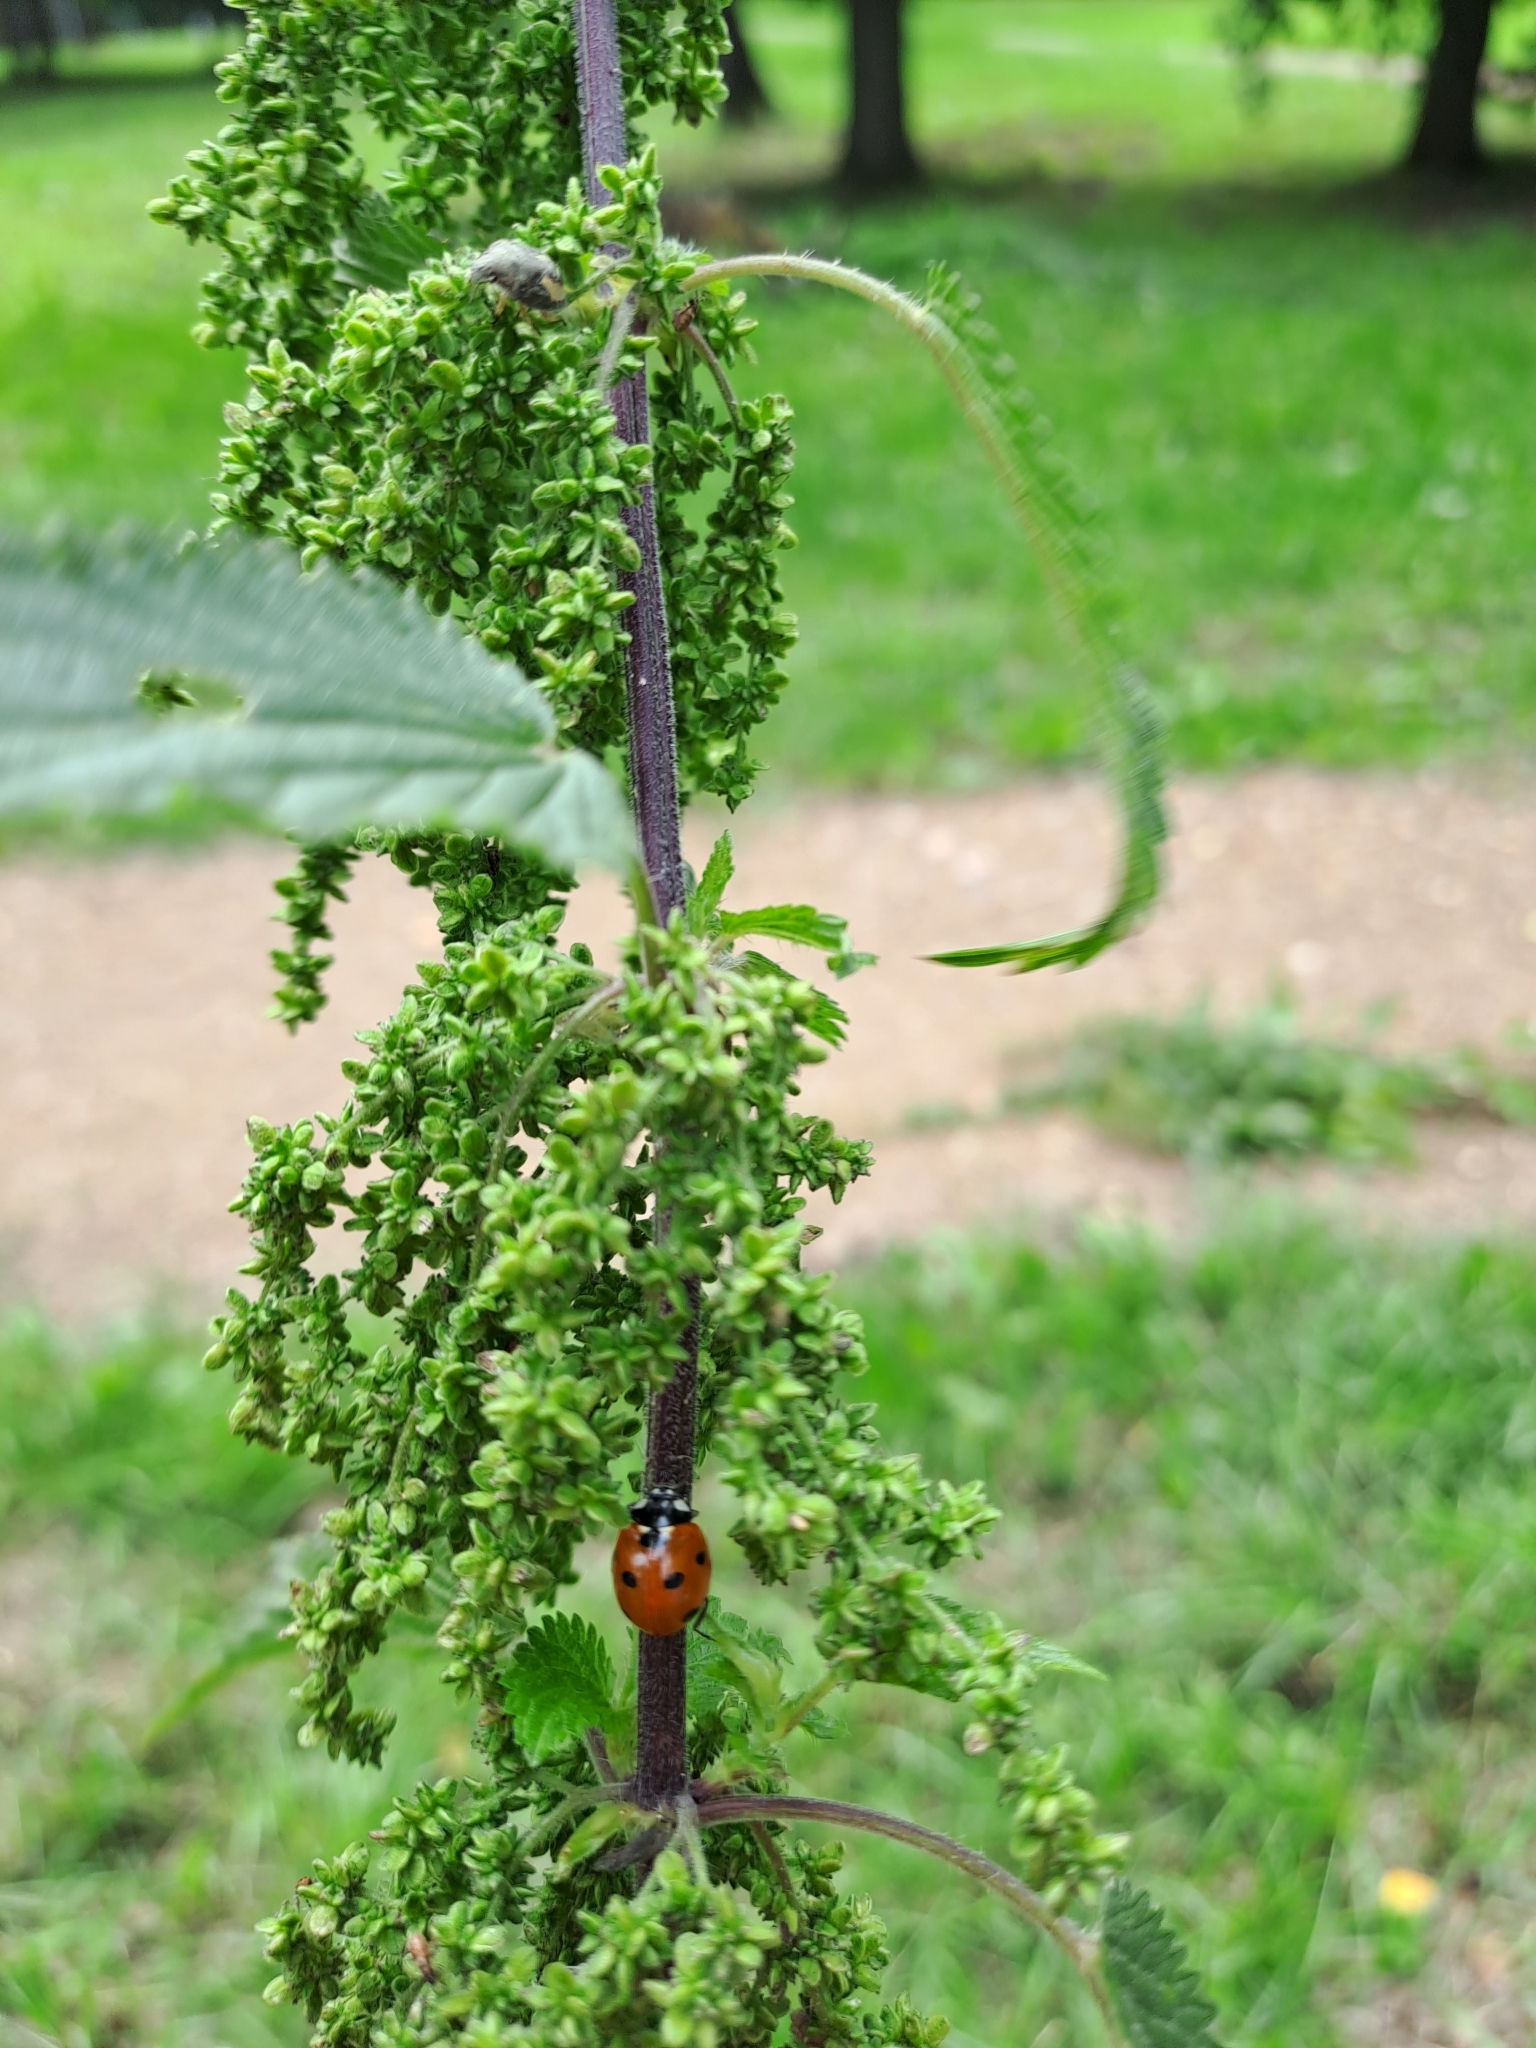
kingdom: Animalia
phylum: Arthropoda
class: Insecta
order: Coleoptera
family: Coccinellidae
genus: Coccinella
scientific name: Coccinella septempunctata
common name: Sevenspotted lady beetle
